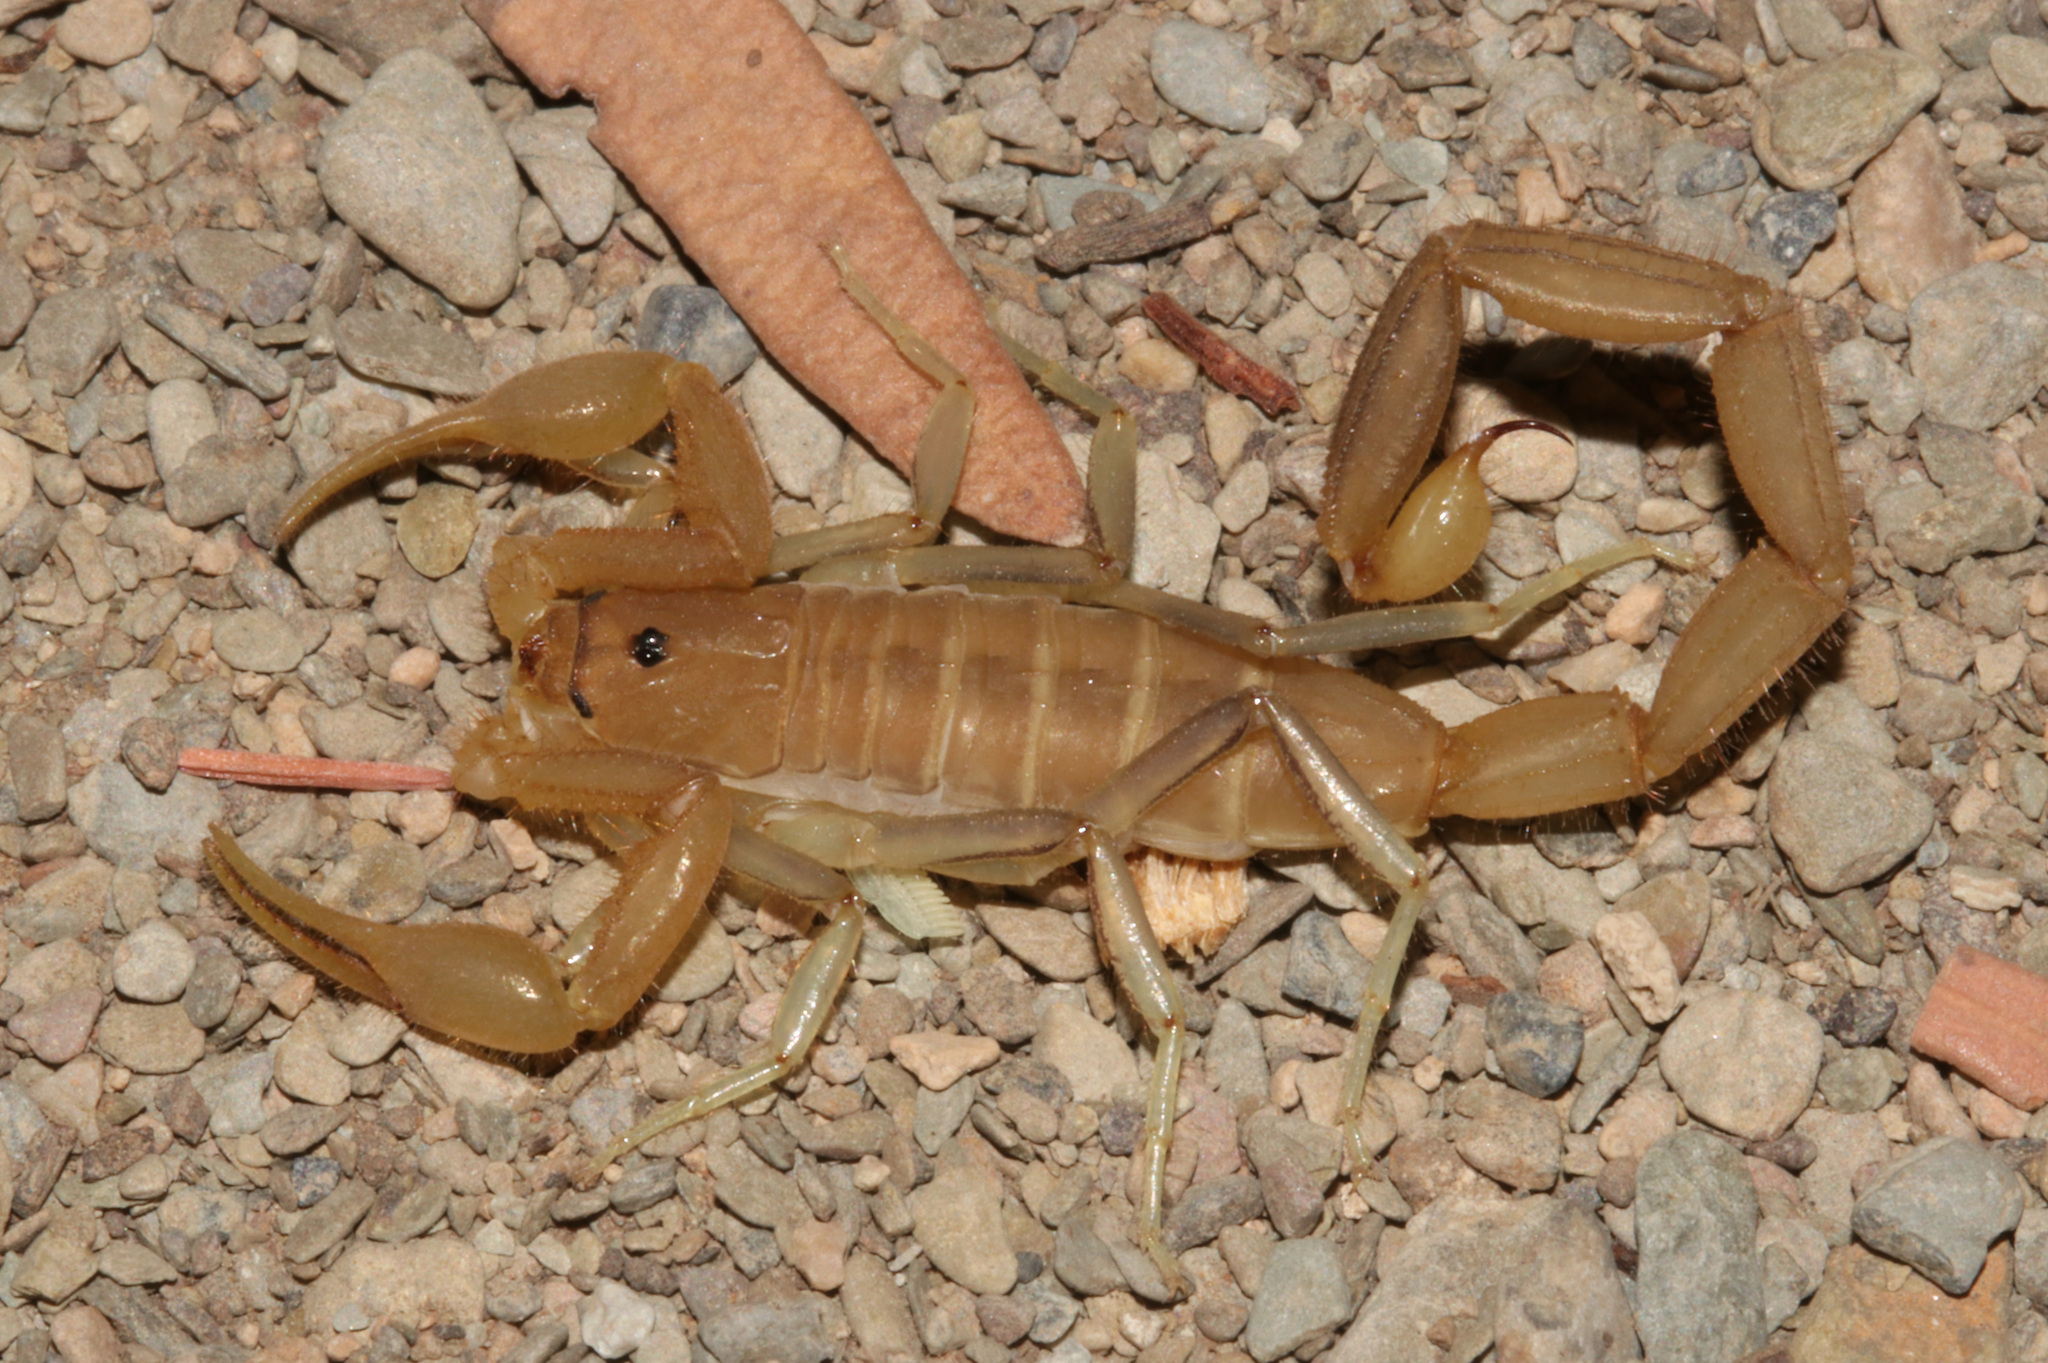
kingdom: Animalia
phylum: Arthropoda
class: Arachnida
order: Scorpiones
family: Buthidae
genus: Uroplectes
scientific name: Uroplectes tumidimanus
